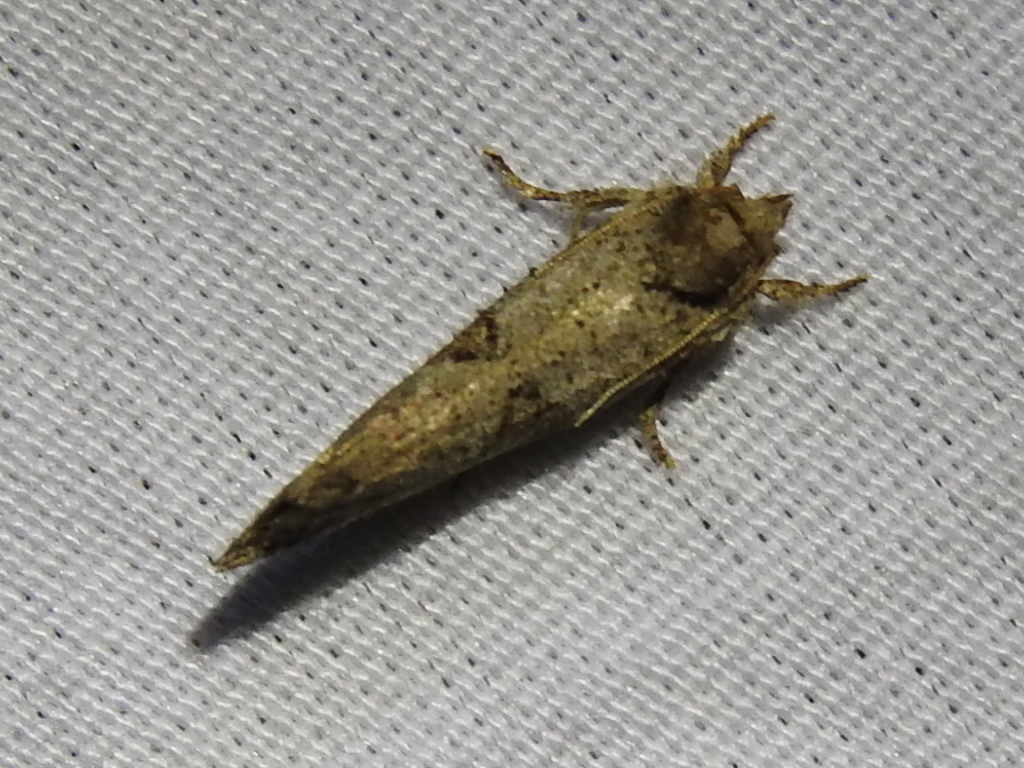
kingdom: Animalia
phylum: Arthropoda
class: Insecta
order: Lepidoptera
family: Tineidae
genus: Acrolophus
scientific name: Acrolophus piger
